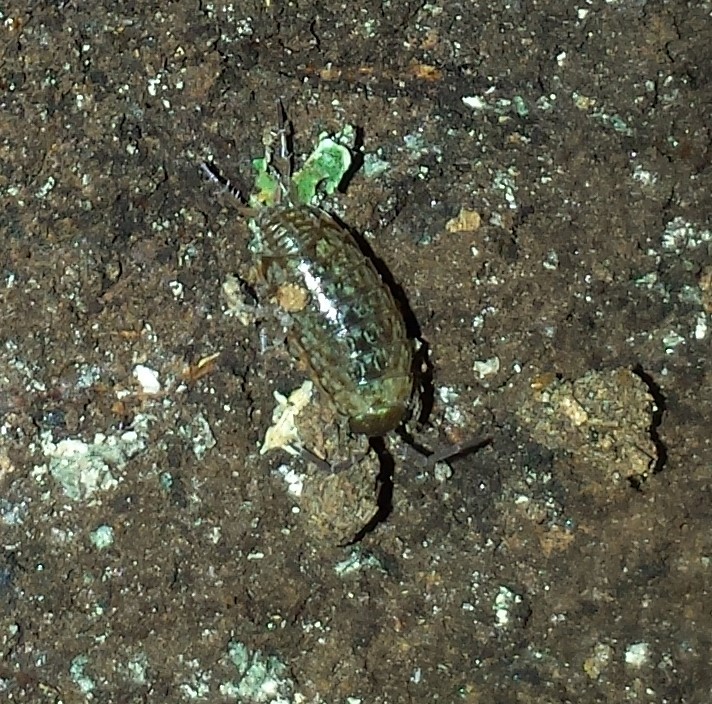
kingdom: Animalia
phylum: Arthropoda
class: Malacostraca
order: Isopoda
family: Philosciidae
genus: Philoscia
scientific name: Philoscia muscorum
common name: Common striped woodlouse
